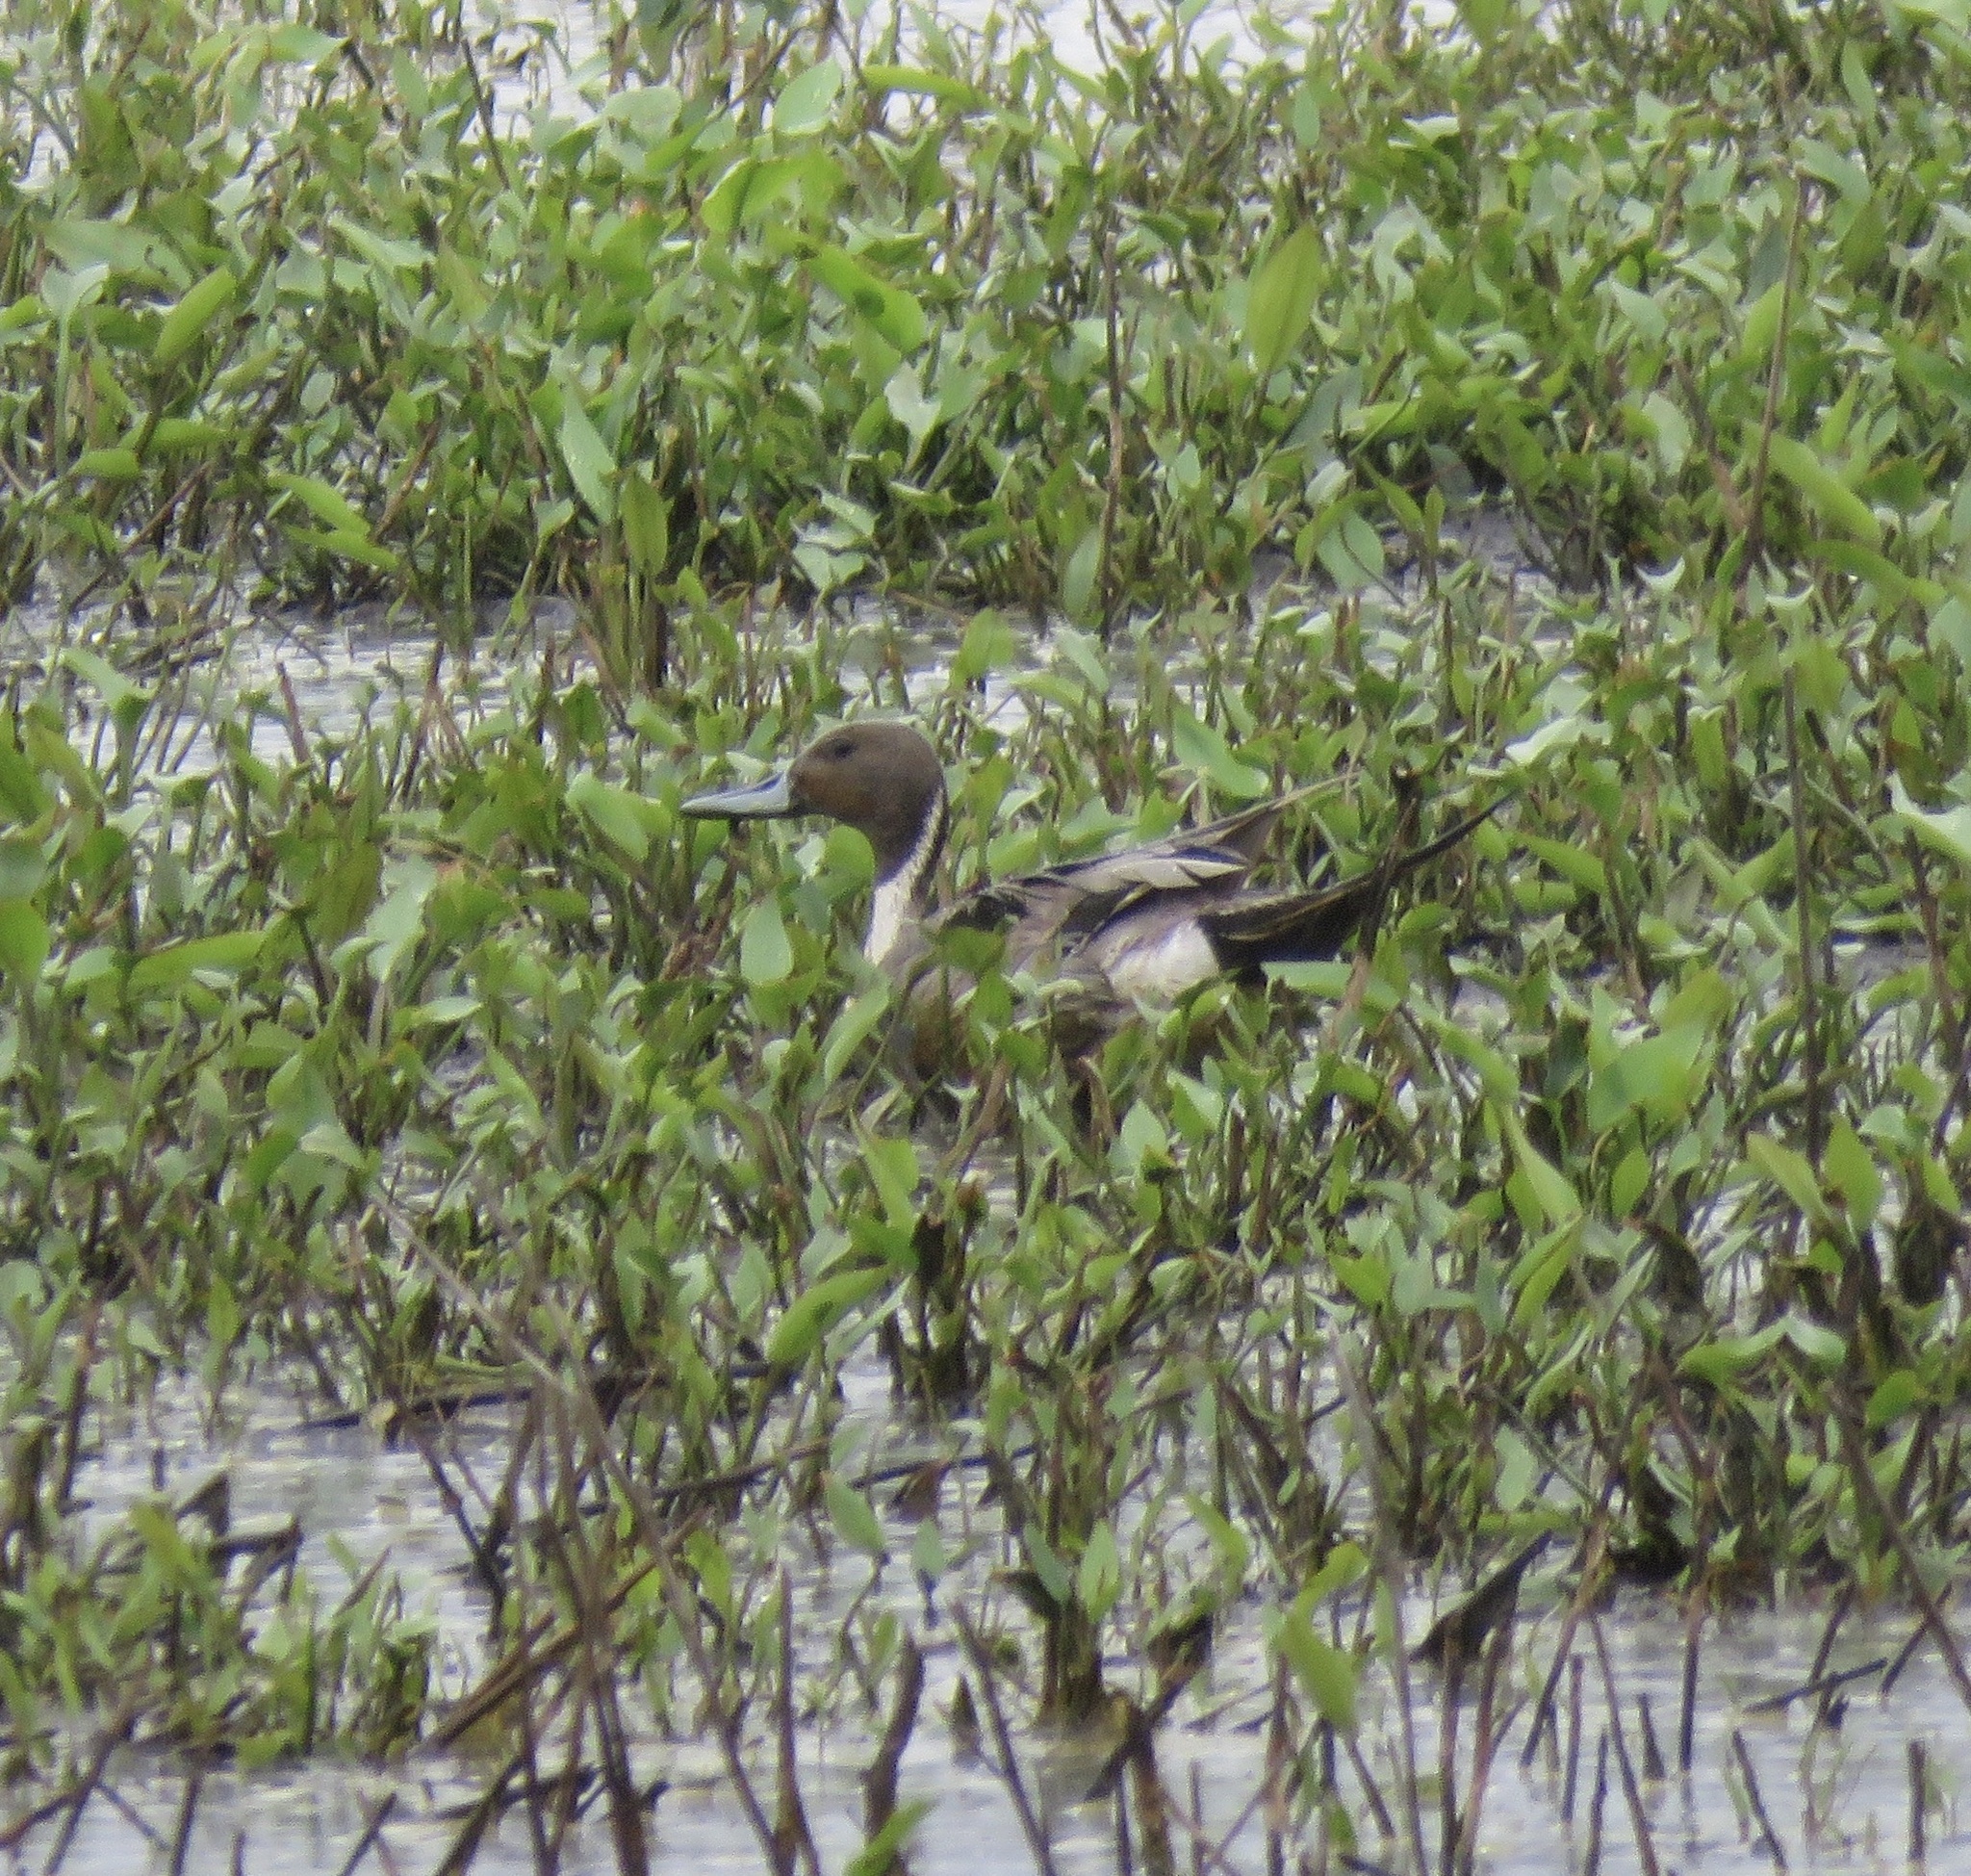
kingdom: Animalia
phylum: Chordata
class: Aves
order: Anseriformes
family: Anatidae
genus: Anas
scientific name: Anas acuta
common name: Northern pintail
